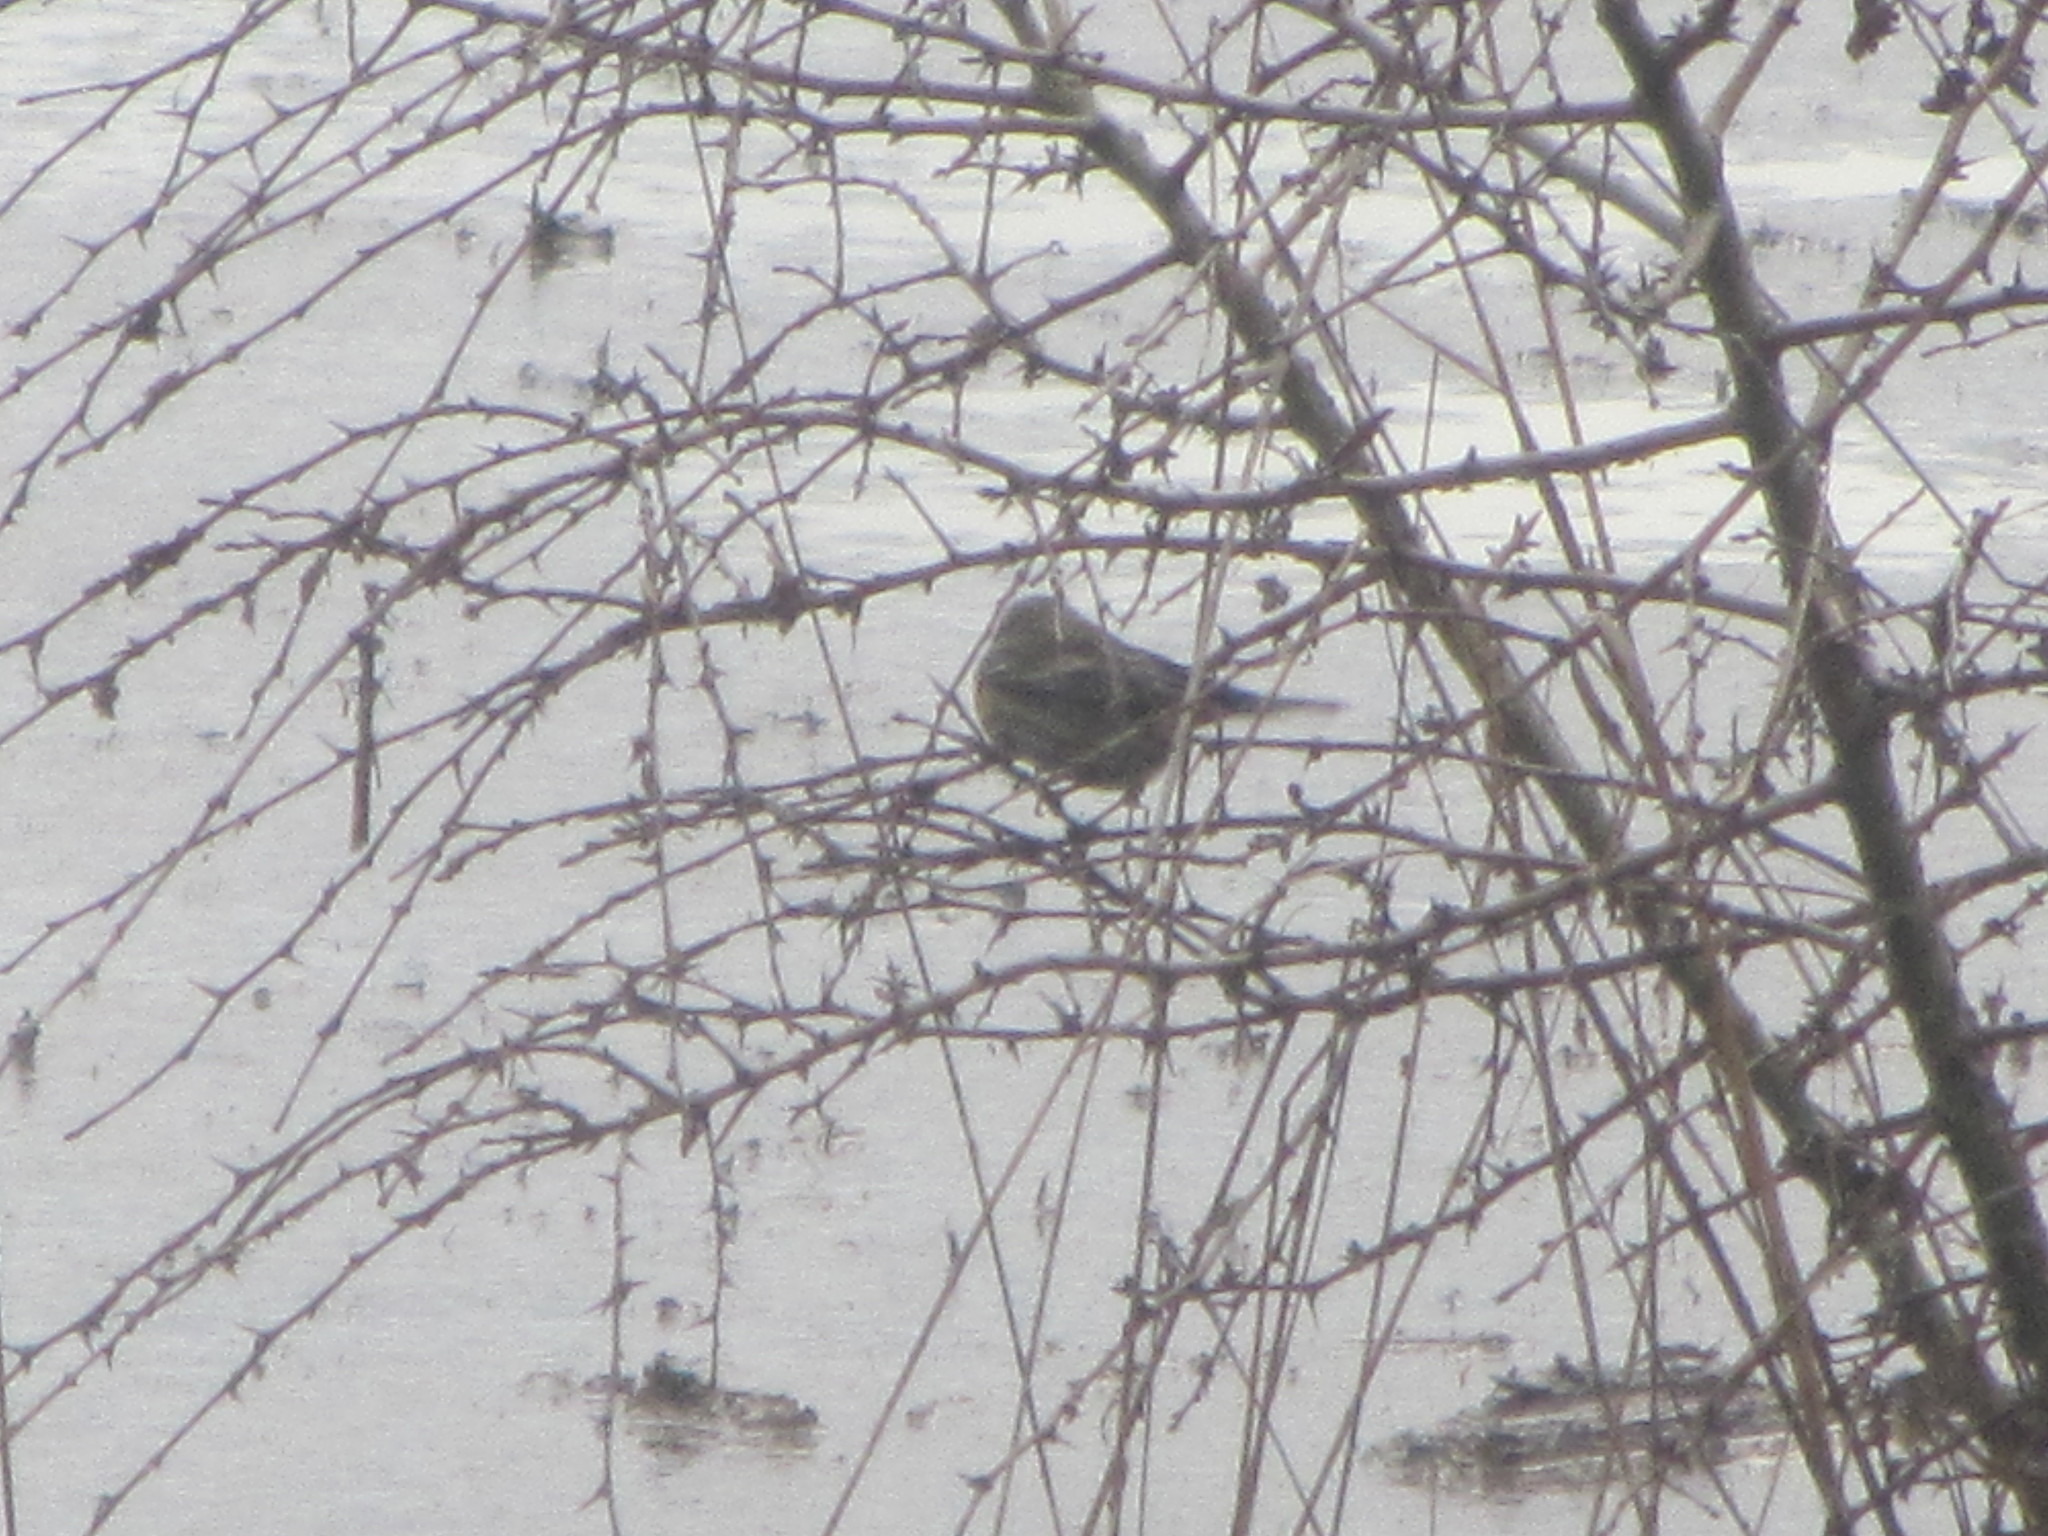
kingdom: Animalia
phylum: Chordata
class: Aves
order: Passeriformes
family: Passerellidae
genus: Melospiza
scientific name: Melospiza melodia
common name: Song sparrow
